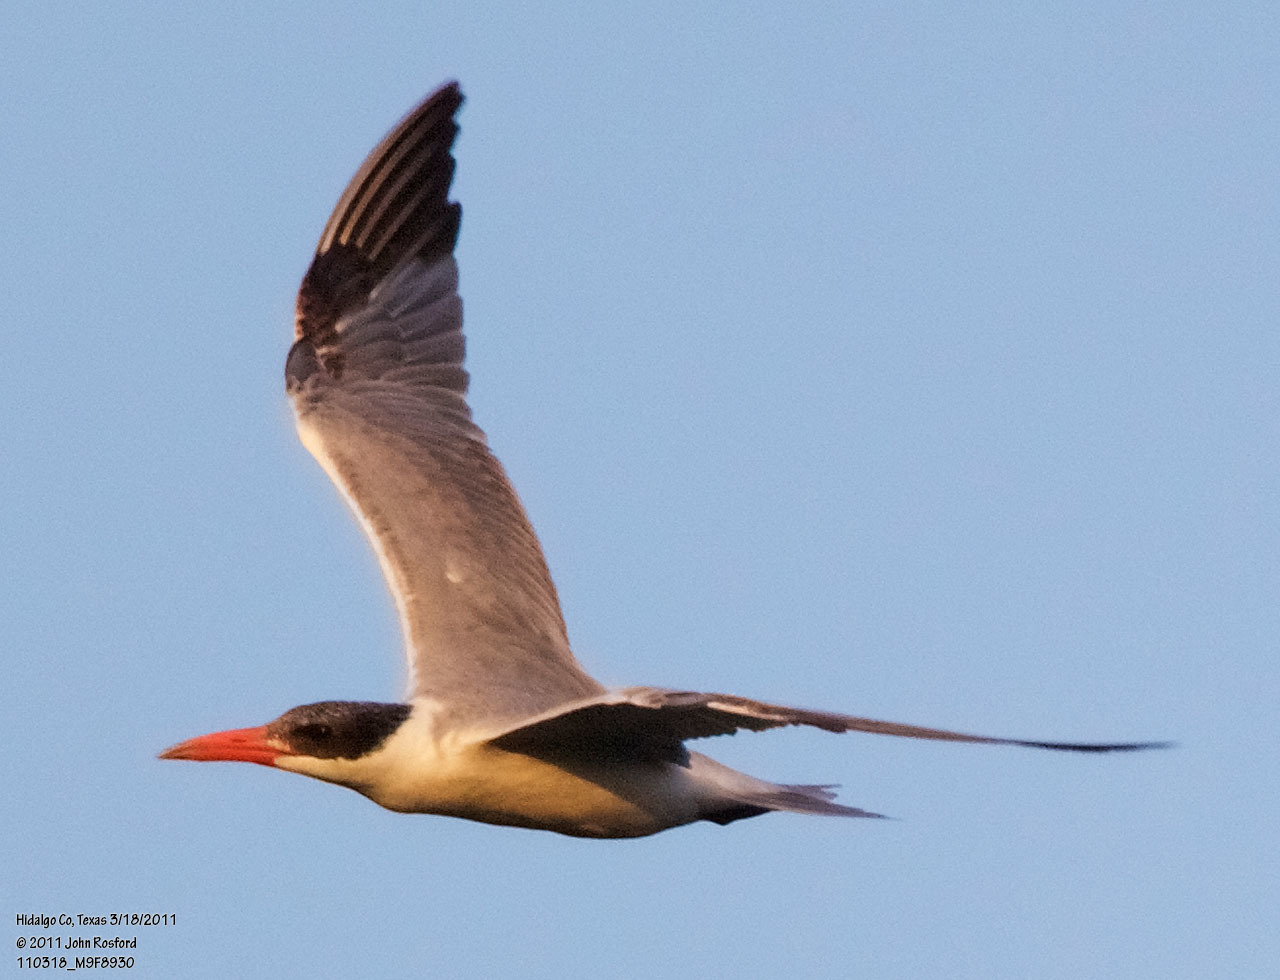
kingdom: Animalia
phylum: Chordata
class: Aves
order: Charadriiformes
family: Laridae
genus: Hydroprogne
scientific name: Hydroprogne caspia
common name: Caspian tern
